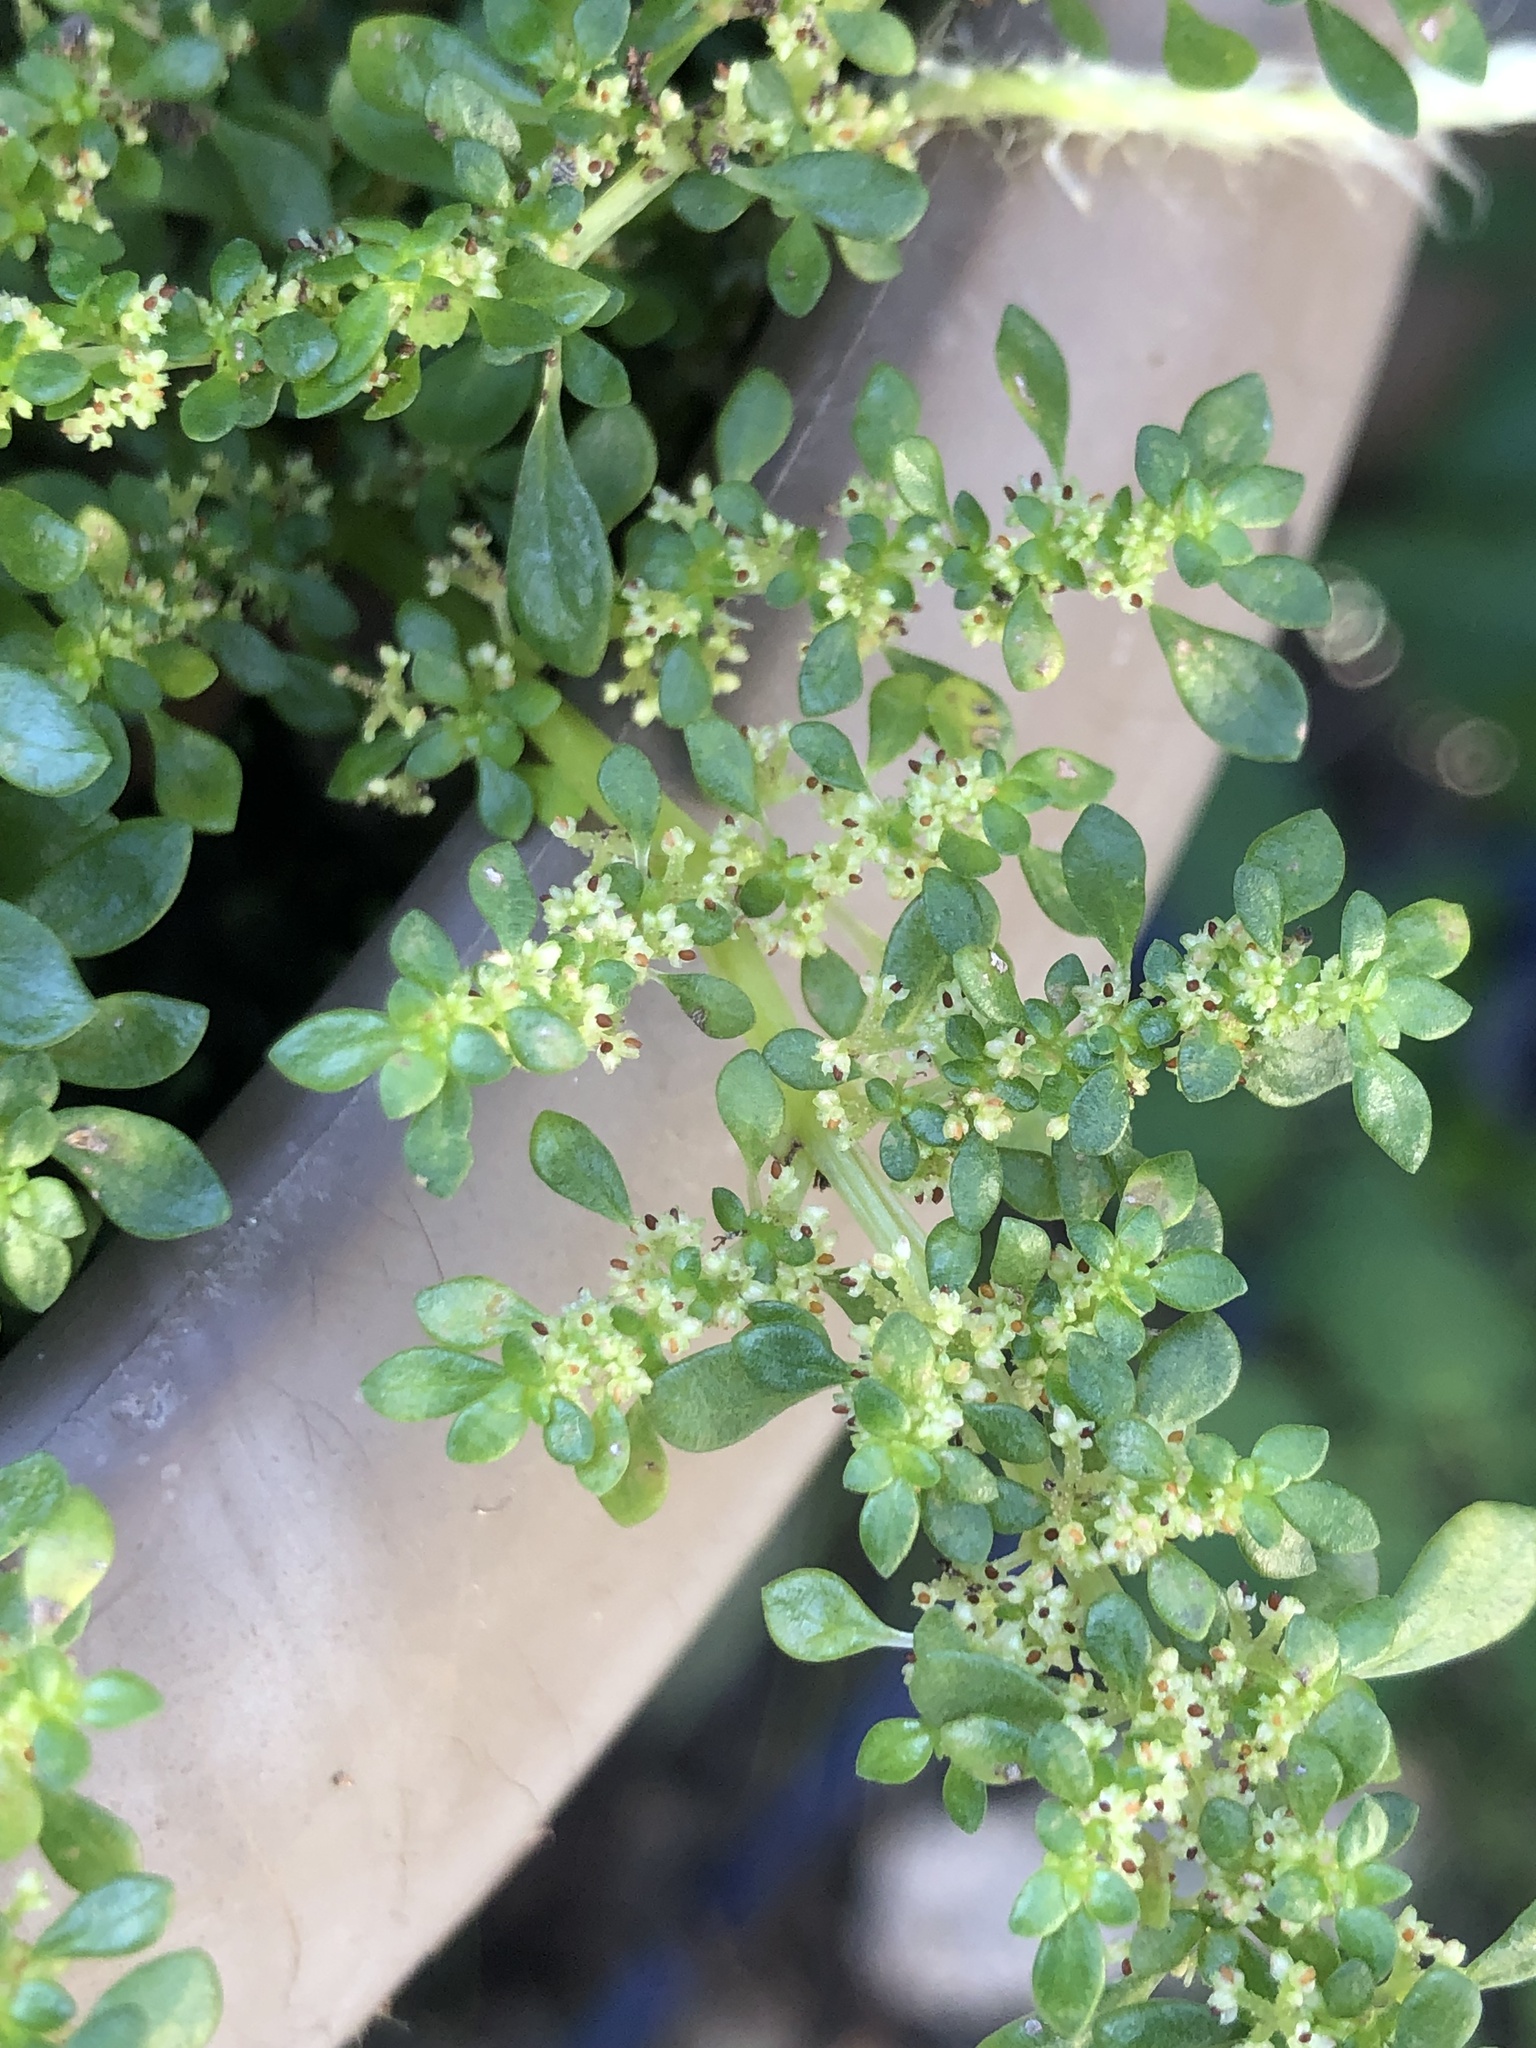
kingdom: Plantae
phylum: Tracheophyta
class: Magnoliopsida
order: Rosales
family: Urticaceae
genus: Pilea
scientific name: Pilea microphylla
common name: Artillery-plant
